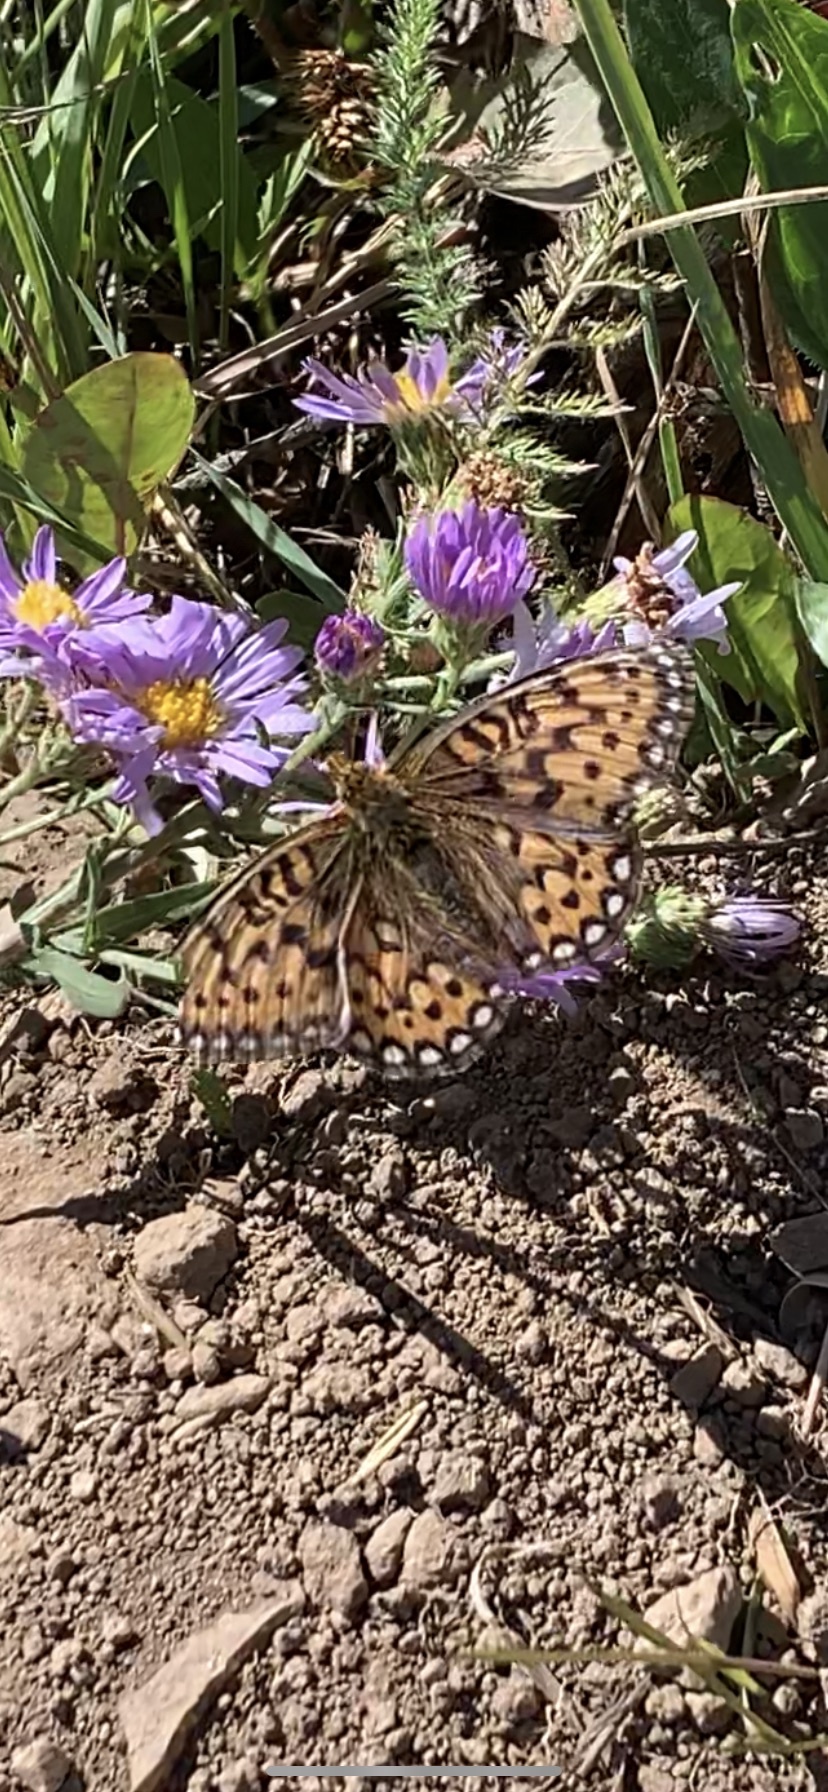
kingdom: Animalia
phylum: Arthropoda
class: Insecta
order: Lepidoptera
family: Nymphalidae
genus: Speyeria
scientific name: Speyeria mormonia
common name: Mormon fritillary
